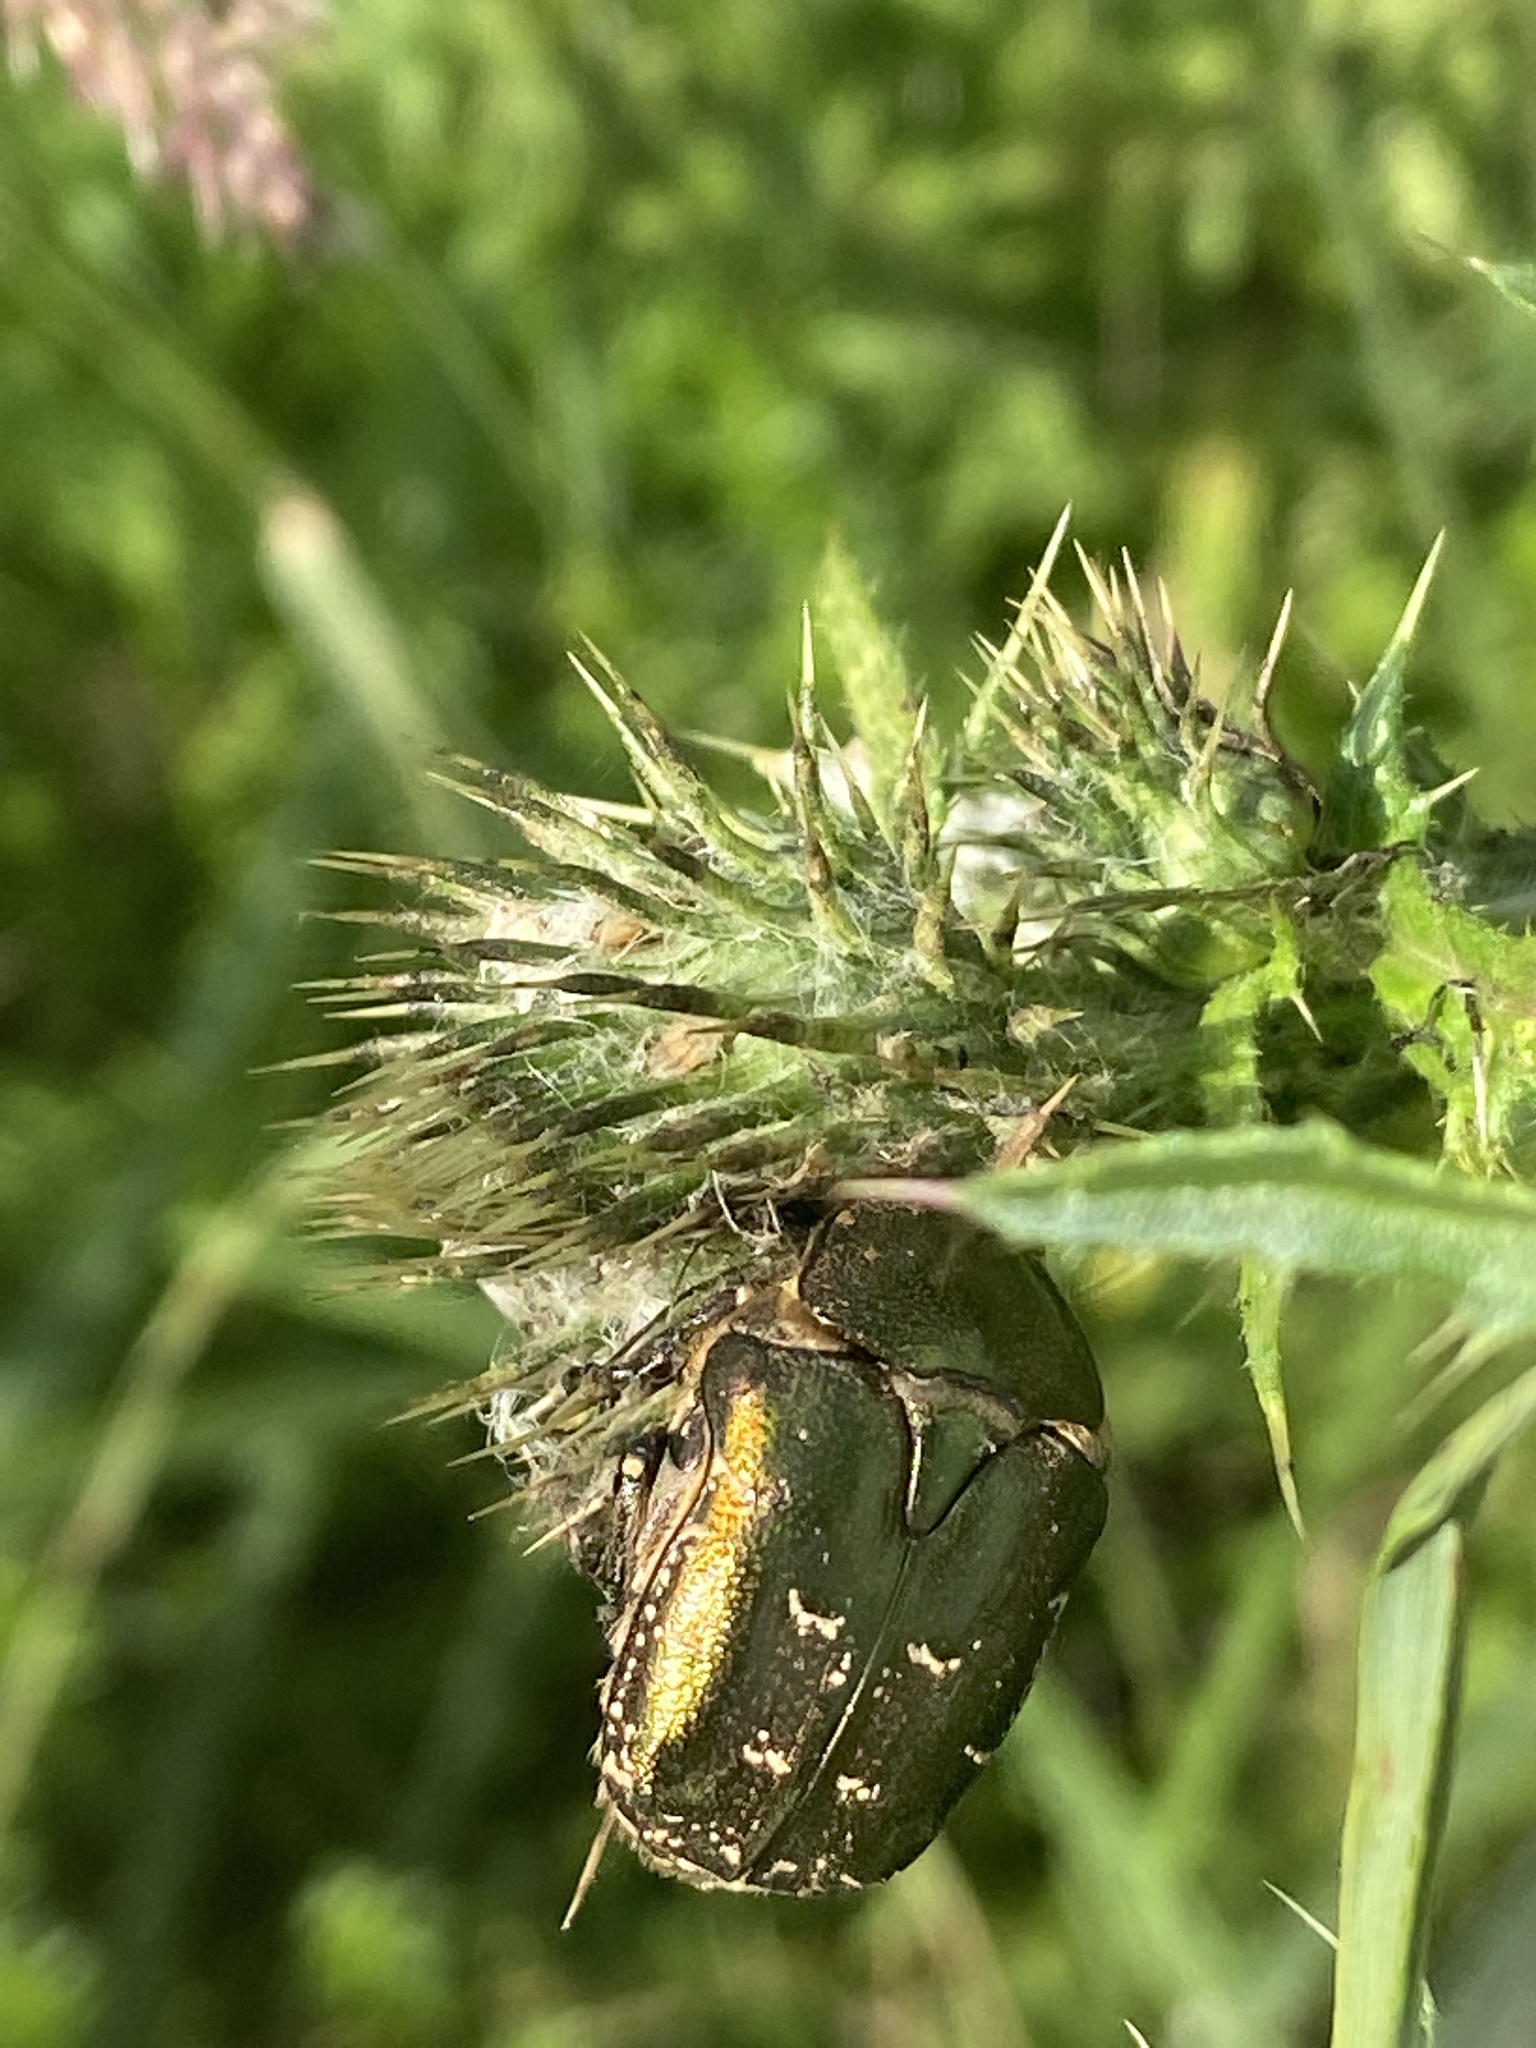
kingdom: Animalia
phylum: Arthropoda
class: Insecta
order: Coleoptera
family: Scarabaeidae
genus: Protaetia
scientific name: Protaetia cuprea
